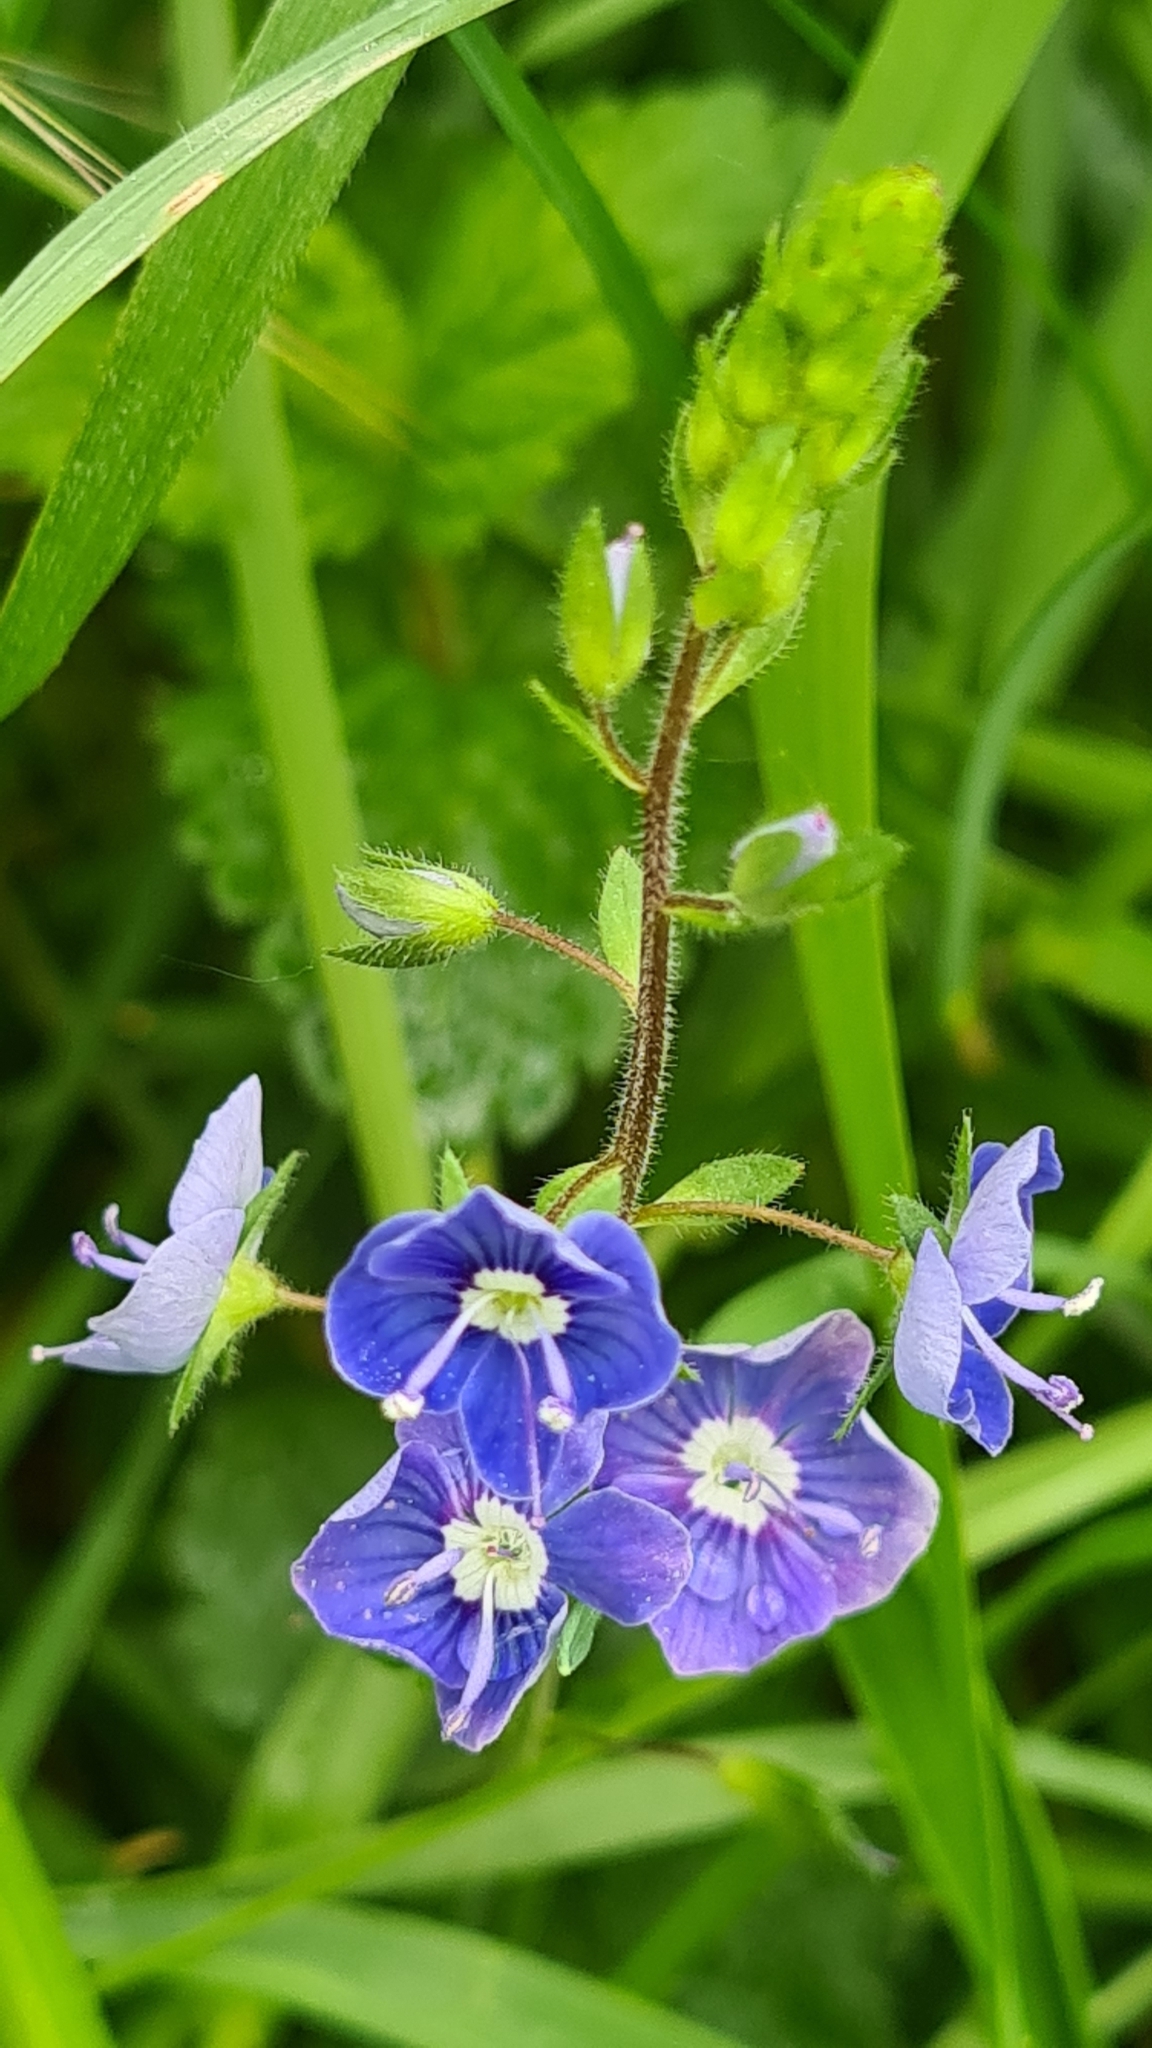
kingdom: Plantae
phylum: Tracheophyta
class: Magnoliopsida
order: Lamiales
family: Plantaginaceae
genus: Veronica
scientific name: Veronica chamaedrys
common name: Germander speedwell
